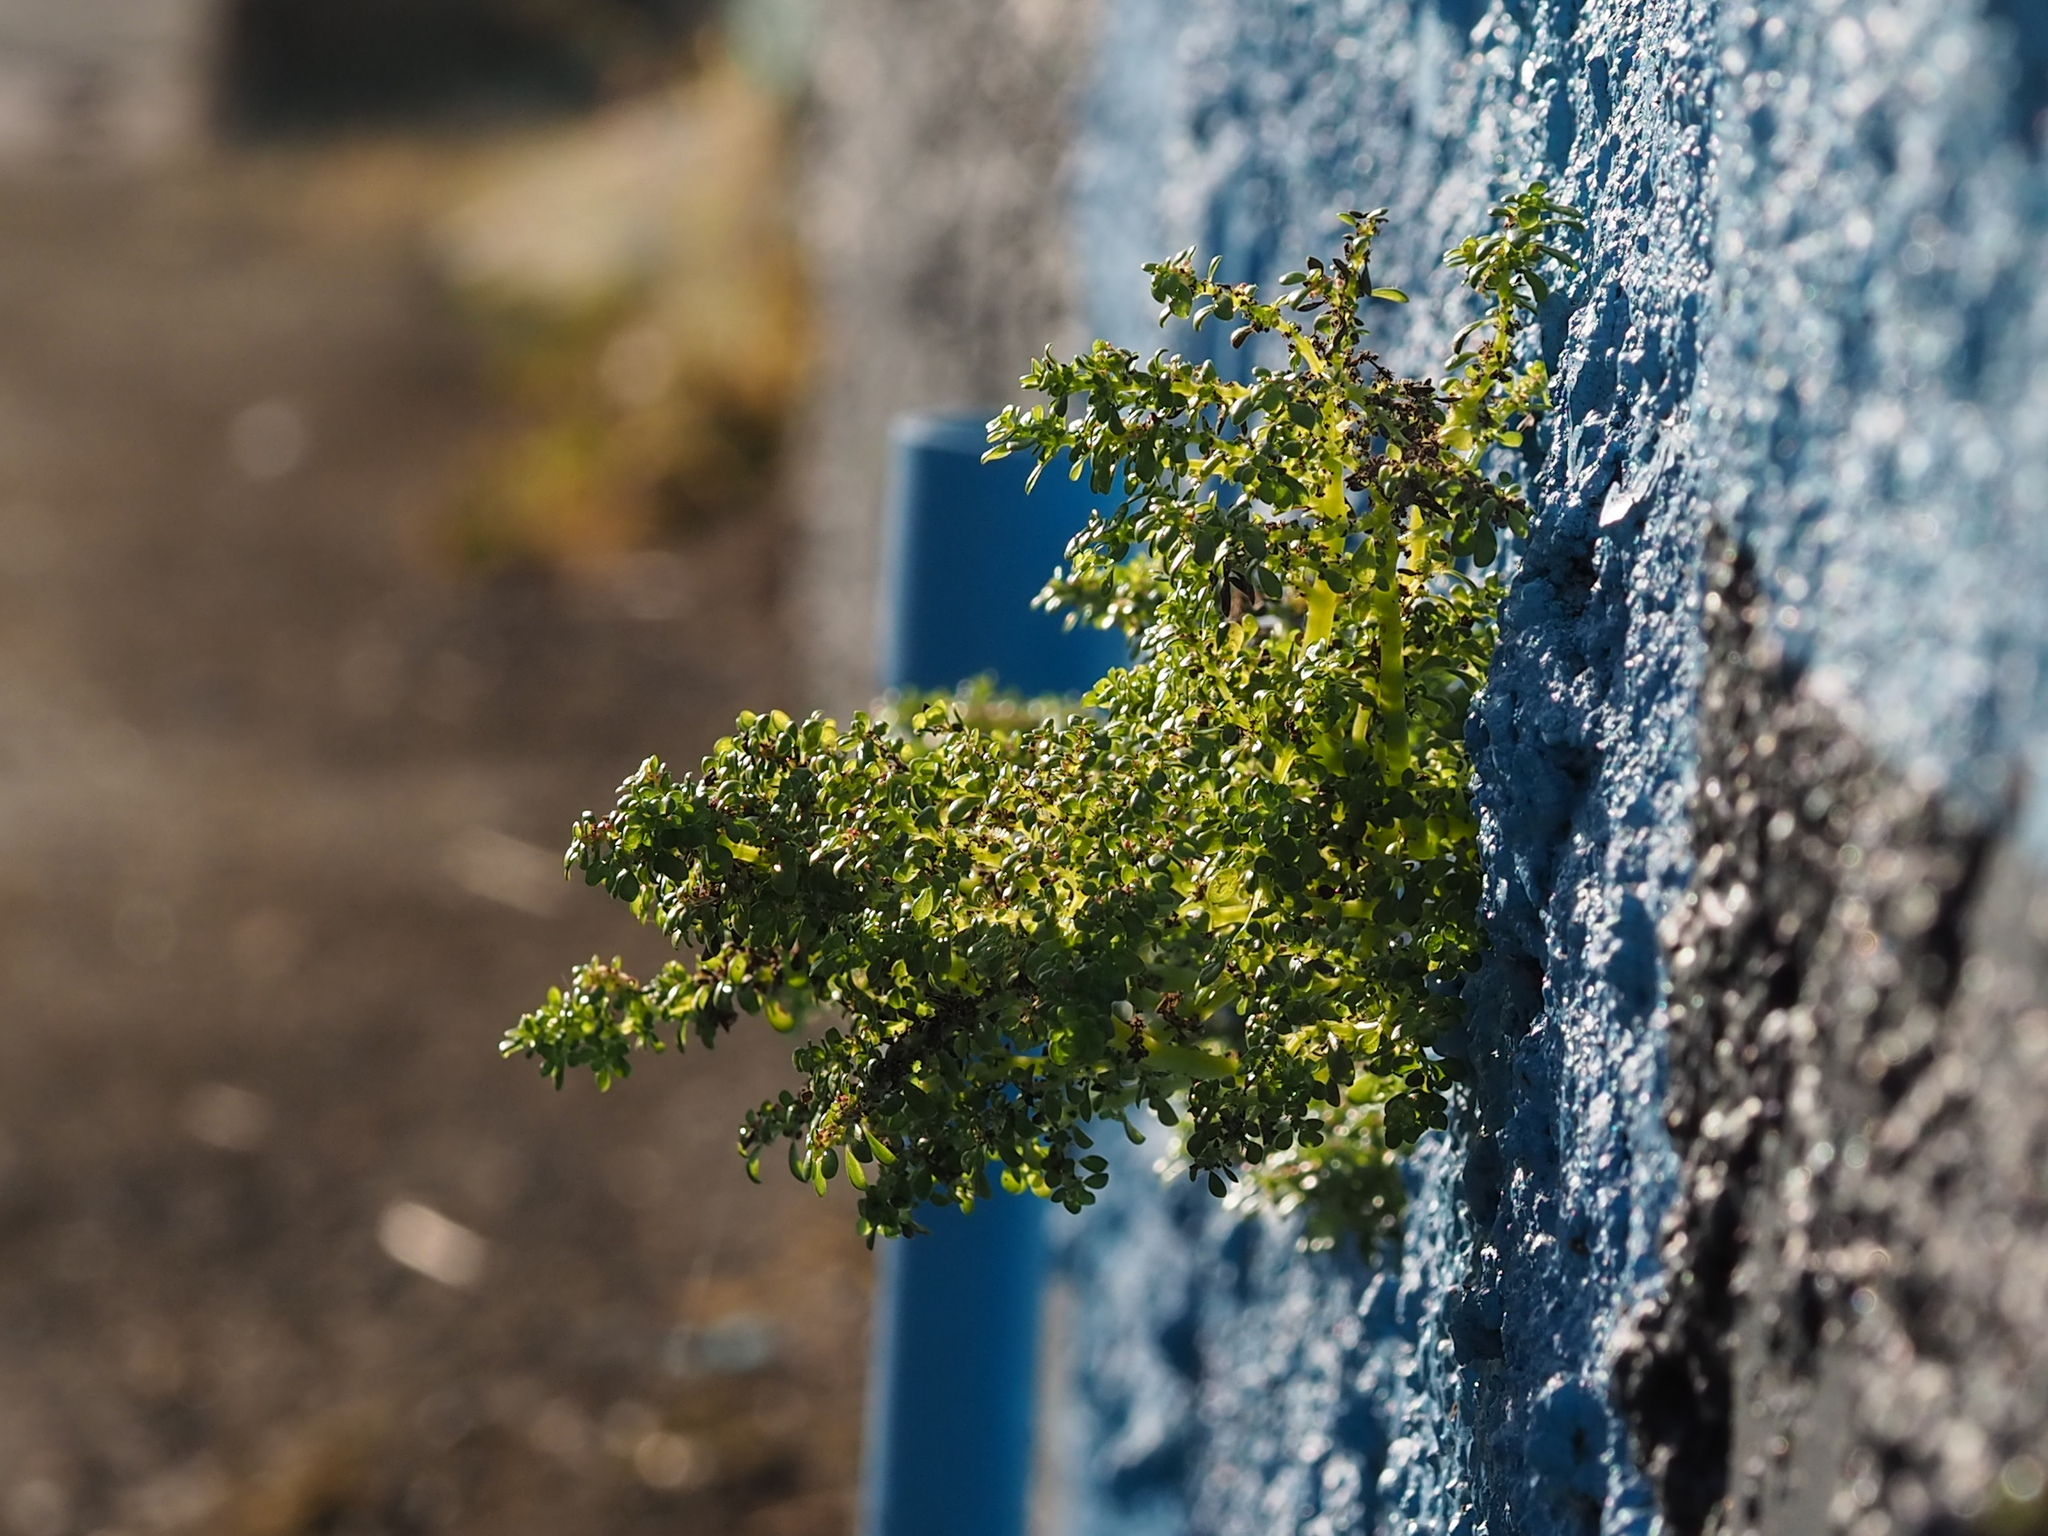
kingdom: Plantae
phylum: Tracheophyta
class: Magnoliopsida
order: Rosales
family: Urticaceae
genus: Pilea
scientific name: Pilea microphylla
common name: Artillery-plant
